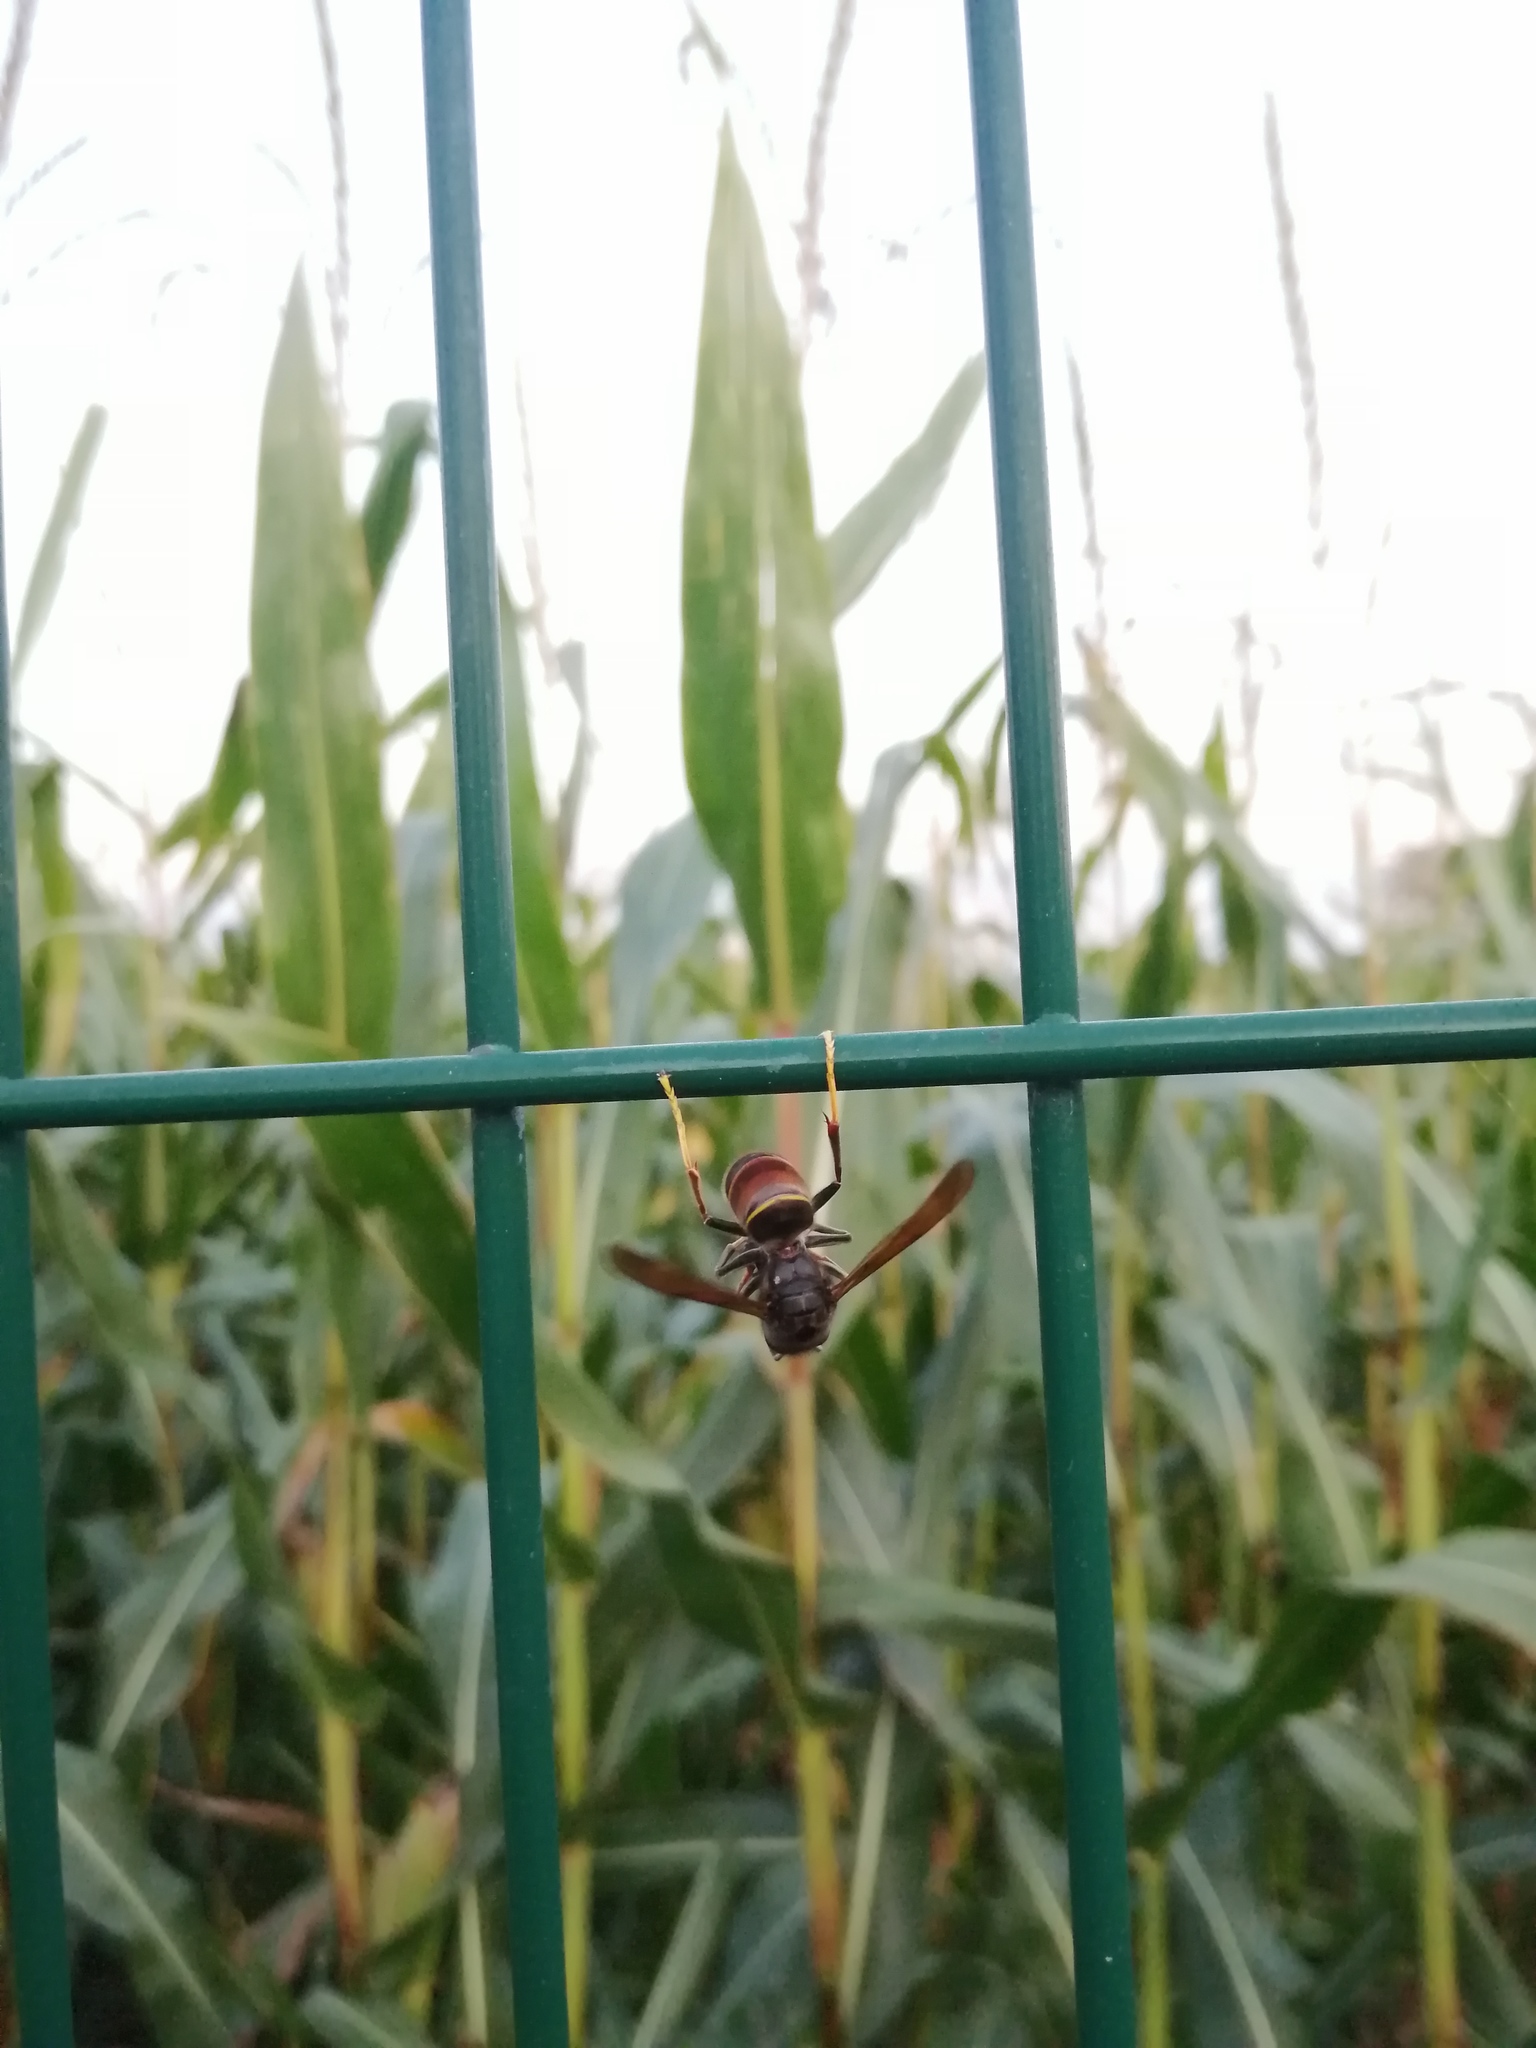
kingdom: Animalia
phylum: Arthropoda
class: Insecta
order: Hymenoptera
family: Vespidae
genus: Vespa
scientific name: Vespa velutina
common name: Asian hornet
